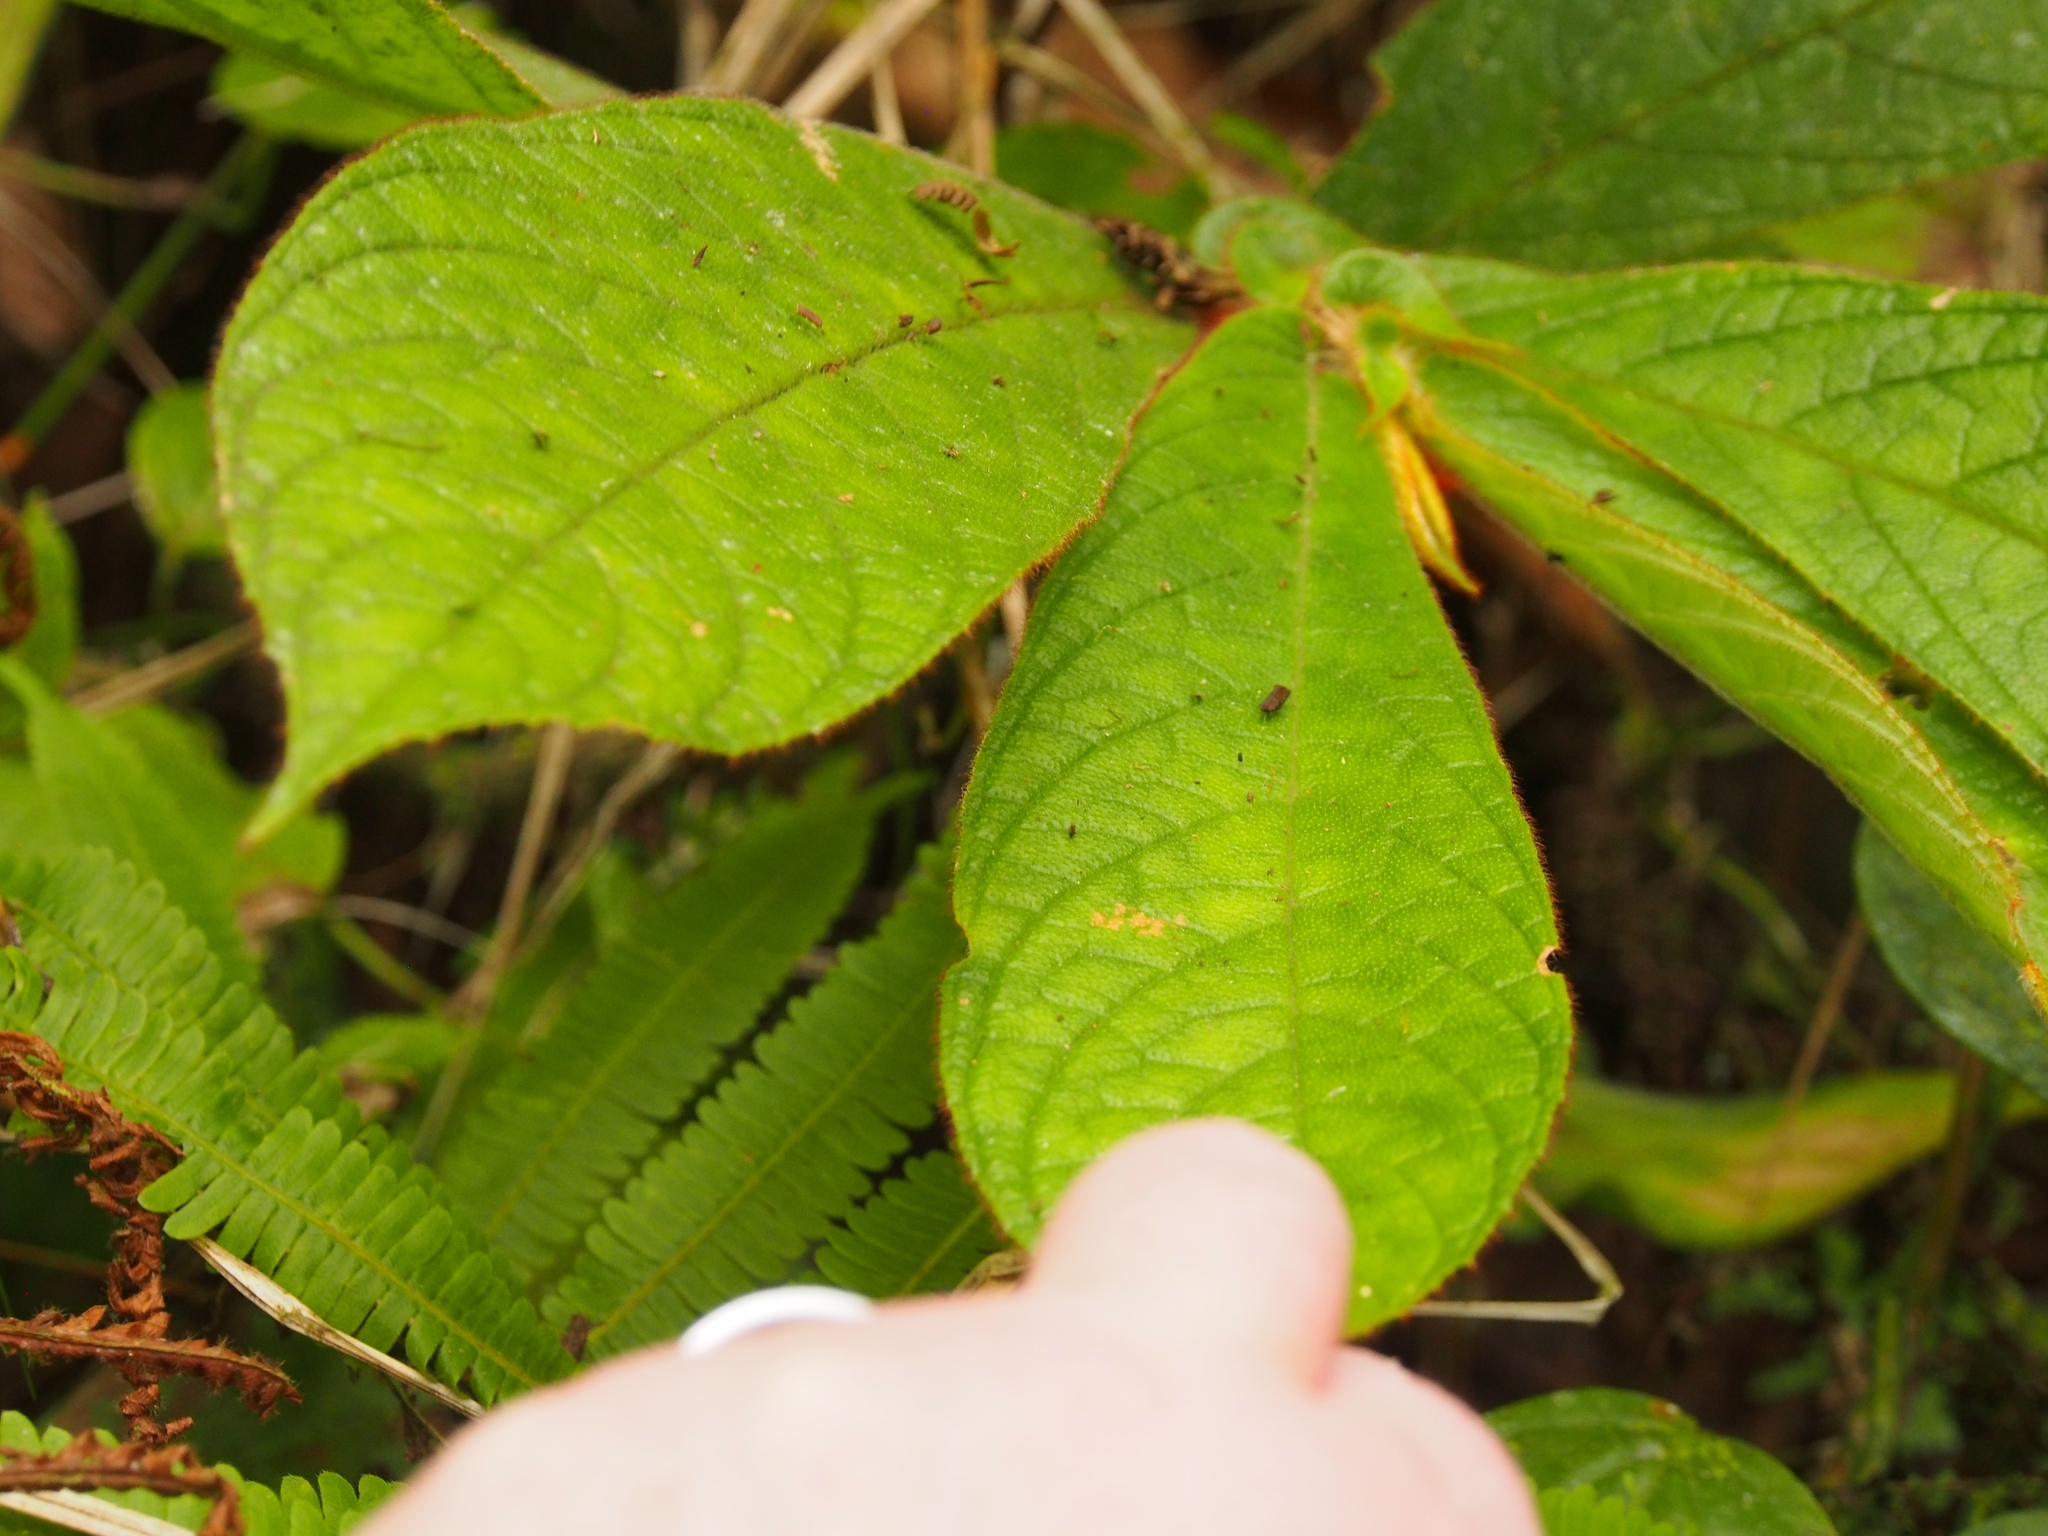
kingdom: Plantae
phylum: Tracheophyta
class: Magnoliopsida
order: Lamiales
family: Gesneriaceae
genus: Columnea
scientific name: Columnea purpurata
